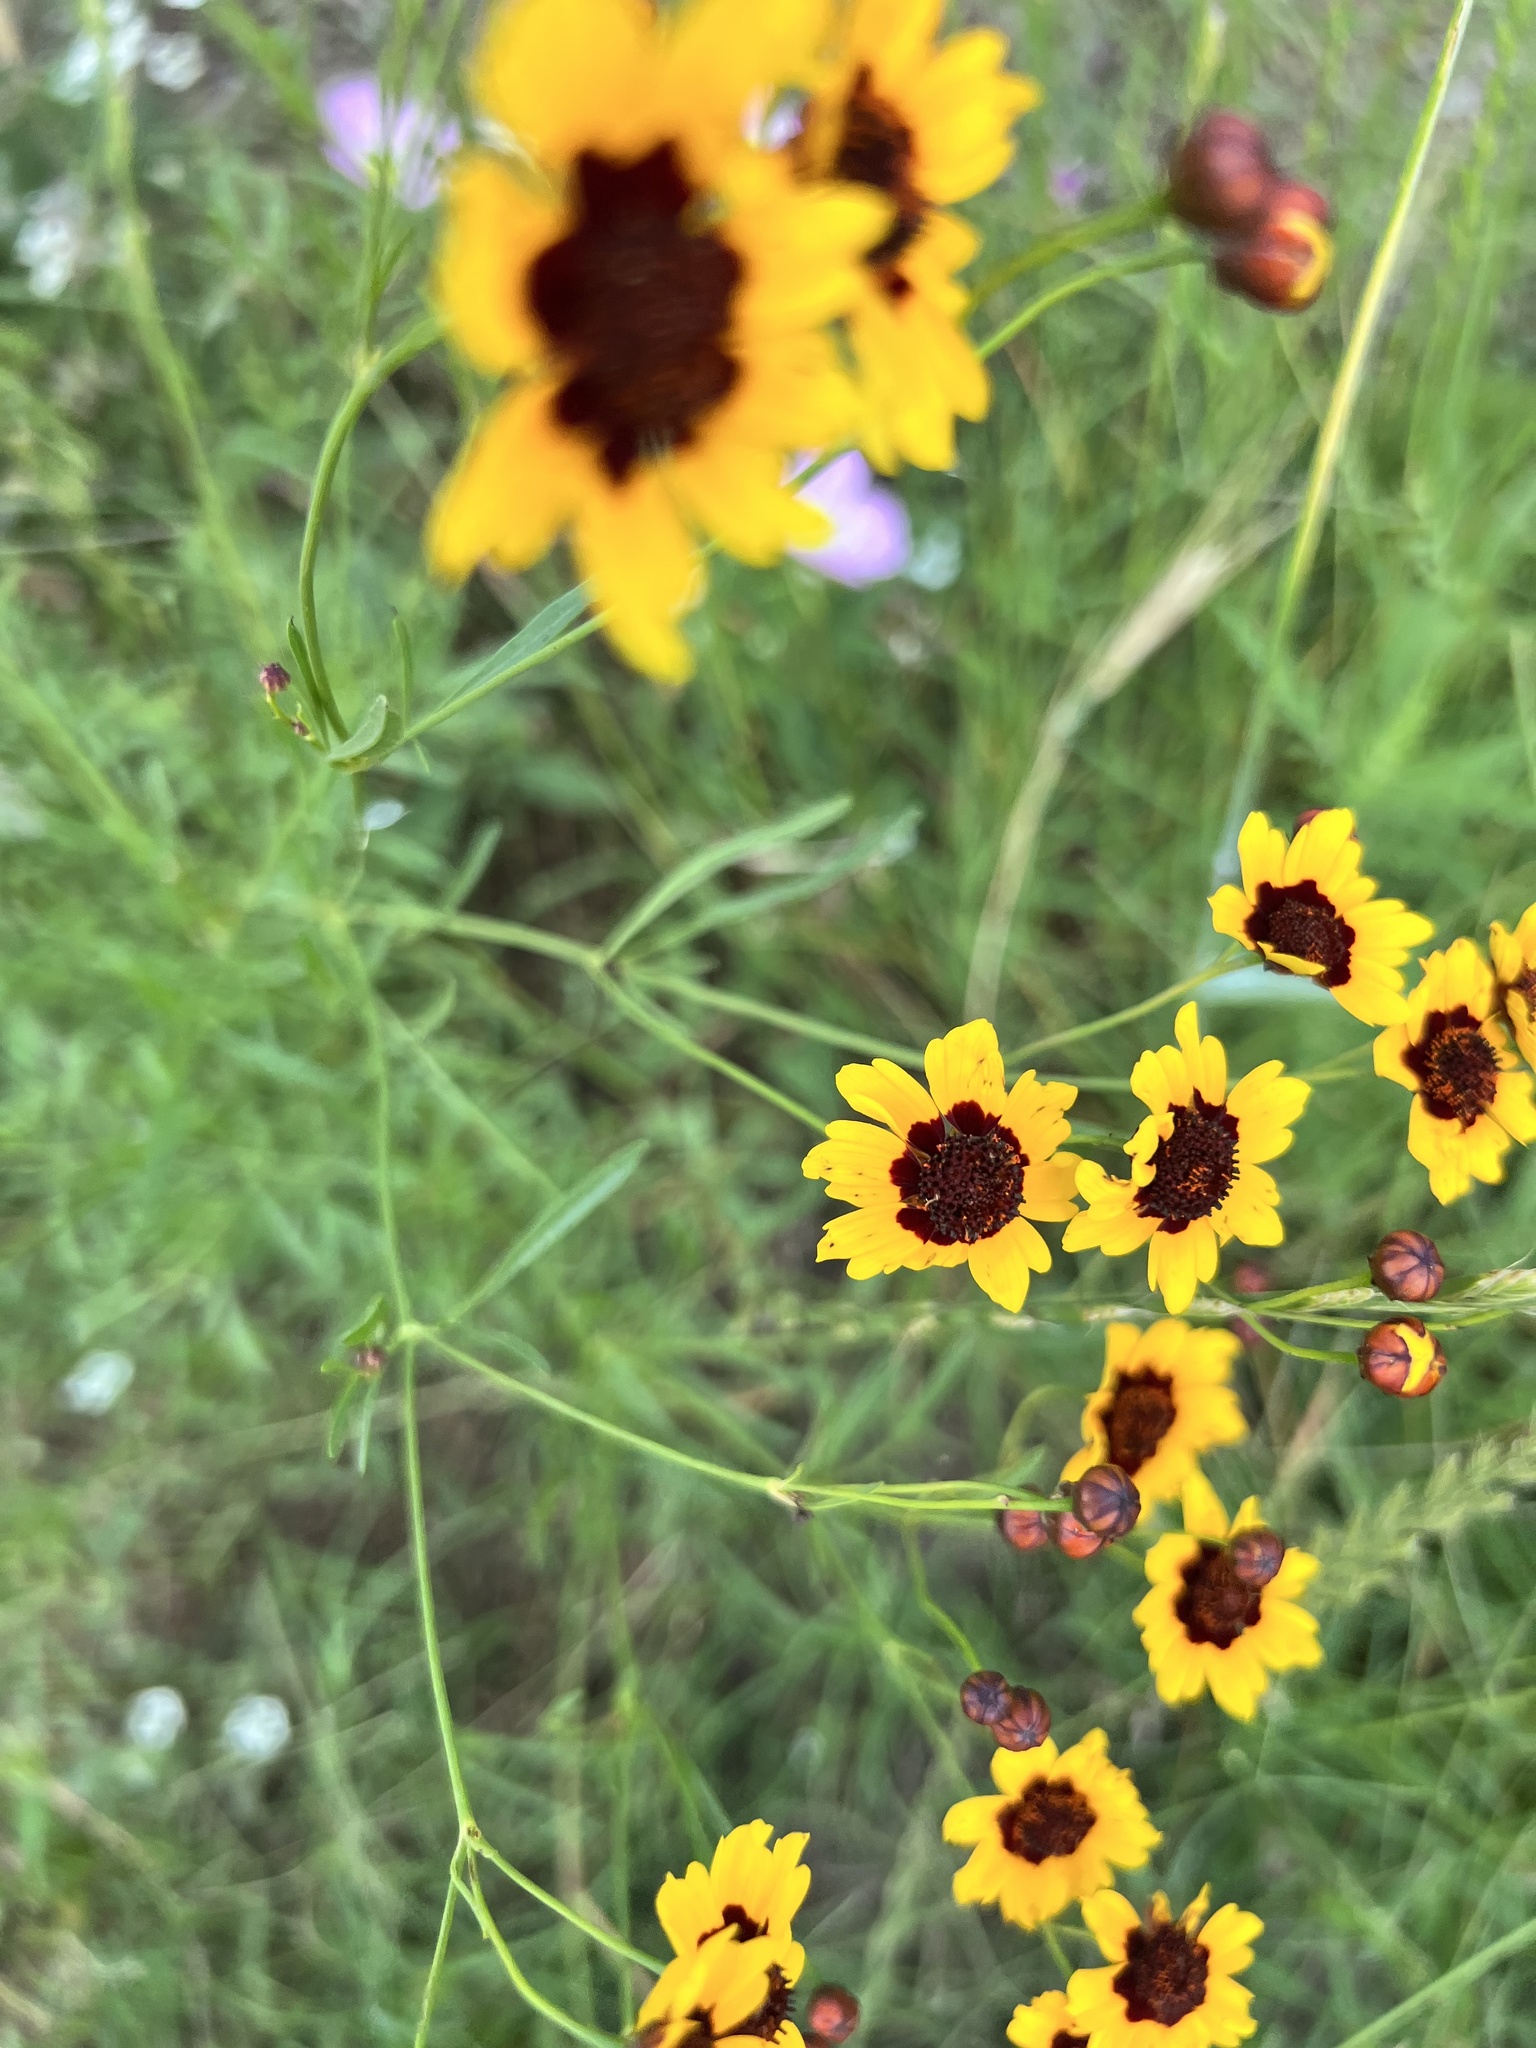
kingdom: Plantae
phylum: Tracheophyta
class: Magnoliopsida
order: Asterales
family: Asteraceae
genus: Coreopsis
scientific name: Coreopsis tinctoria
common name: Garden tickseed
